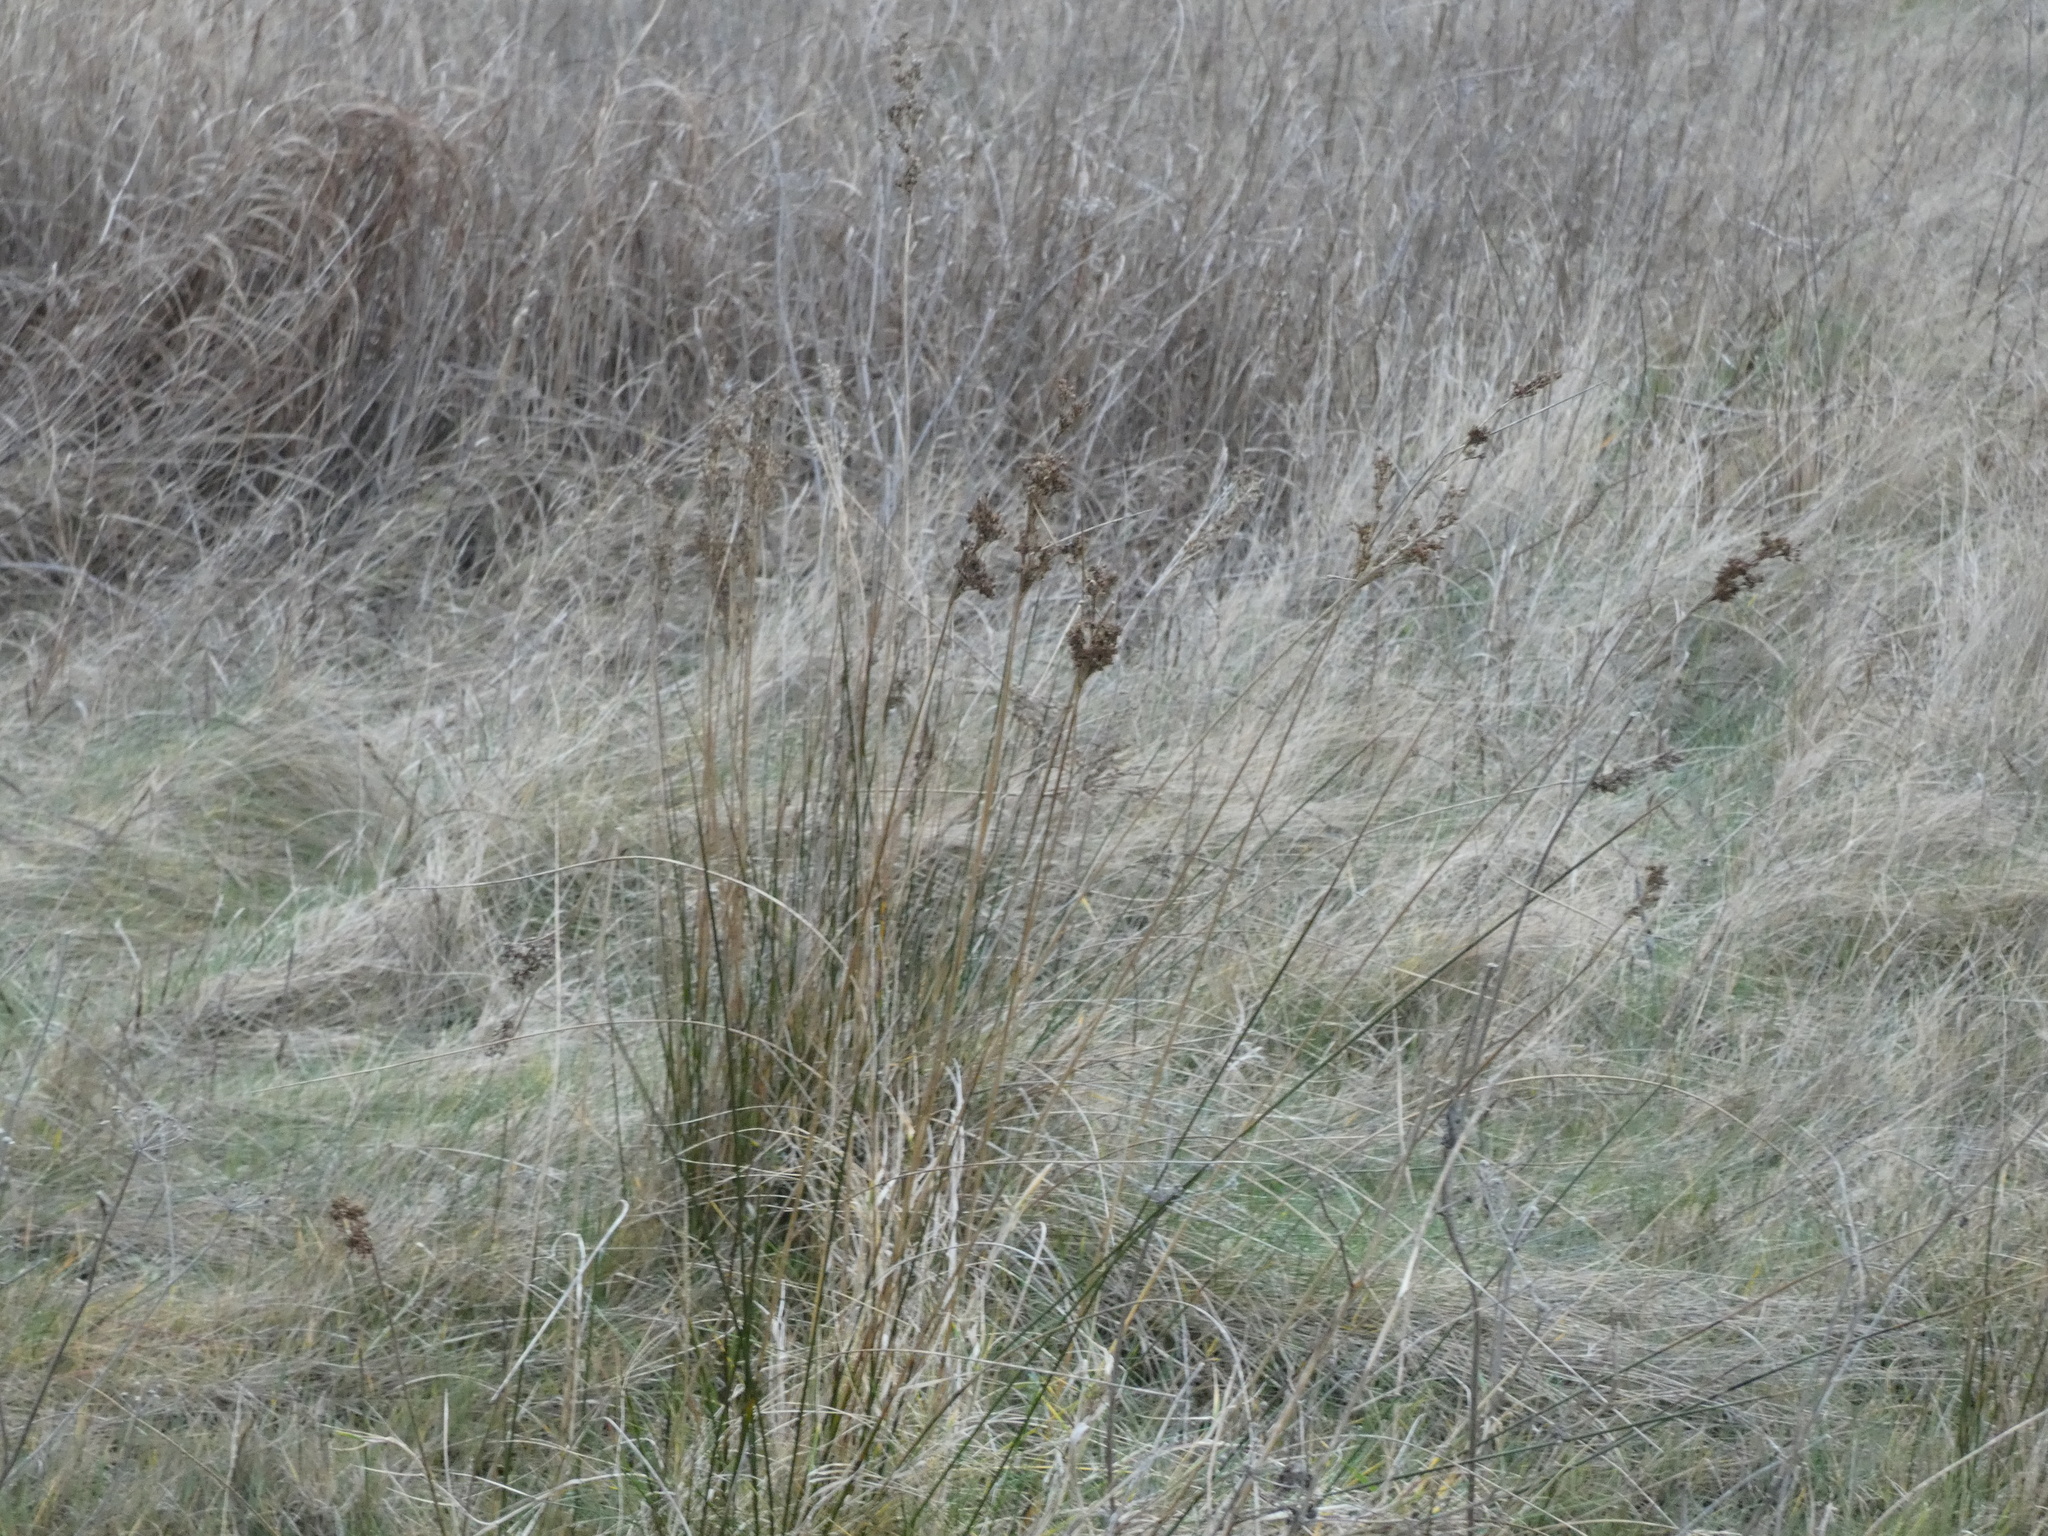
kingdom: Plantae
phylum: Tracheophyta
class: Liliopsida
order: Poales
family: Juncaceae
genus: Juncus
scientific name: Juncus maritimus
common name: Sea rush
